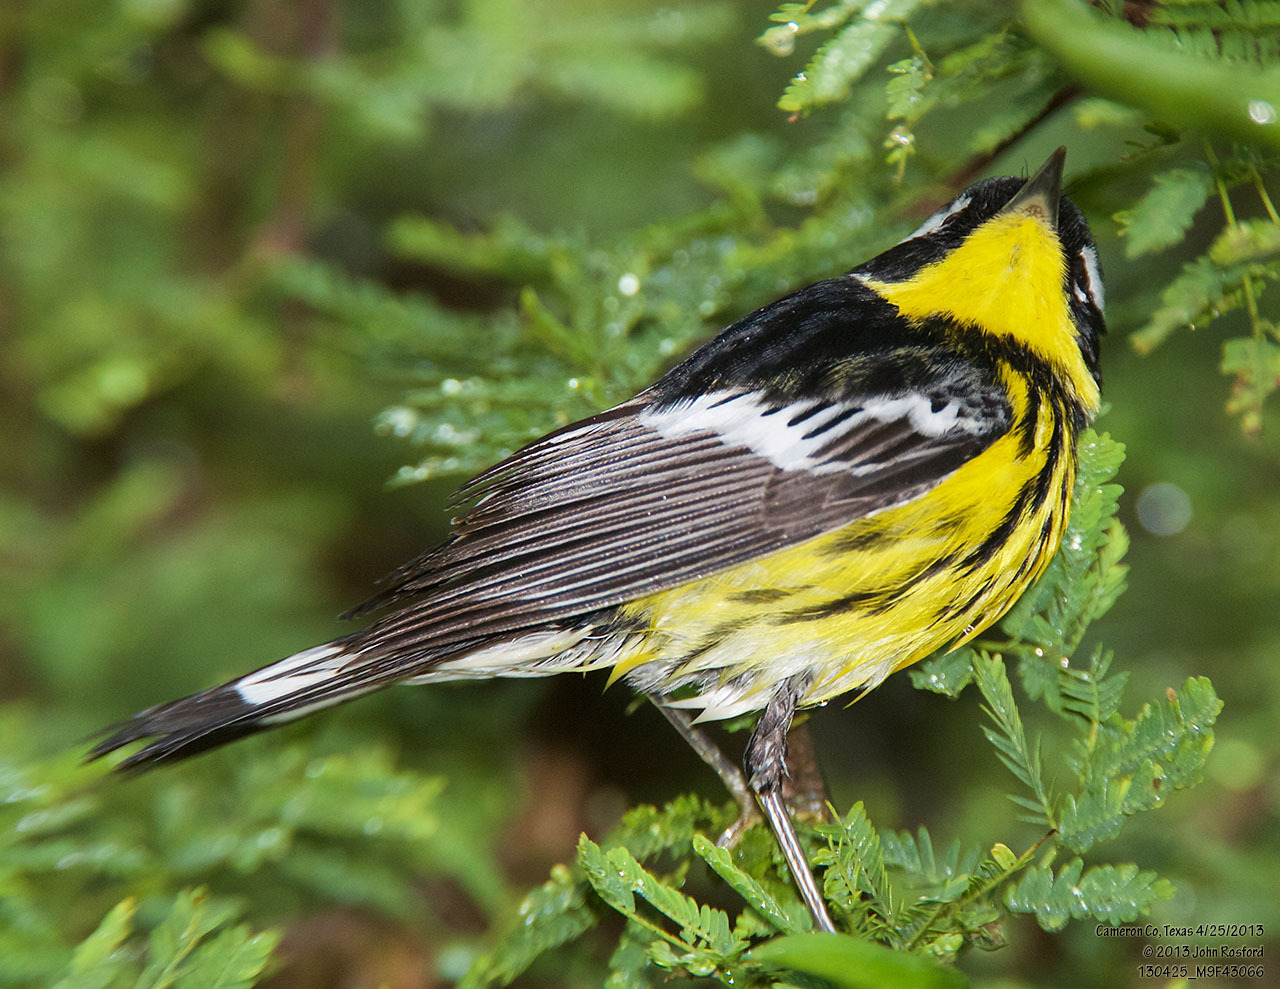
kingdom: Animalia
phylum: Chordata
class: Aves
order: Passeriformes
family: Parulidae
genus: Setophaga
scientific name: Setophaga magnolia
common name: Magnolia warbler
